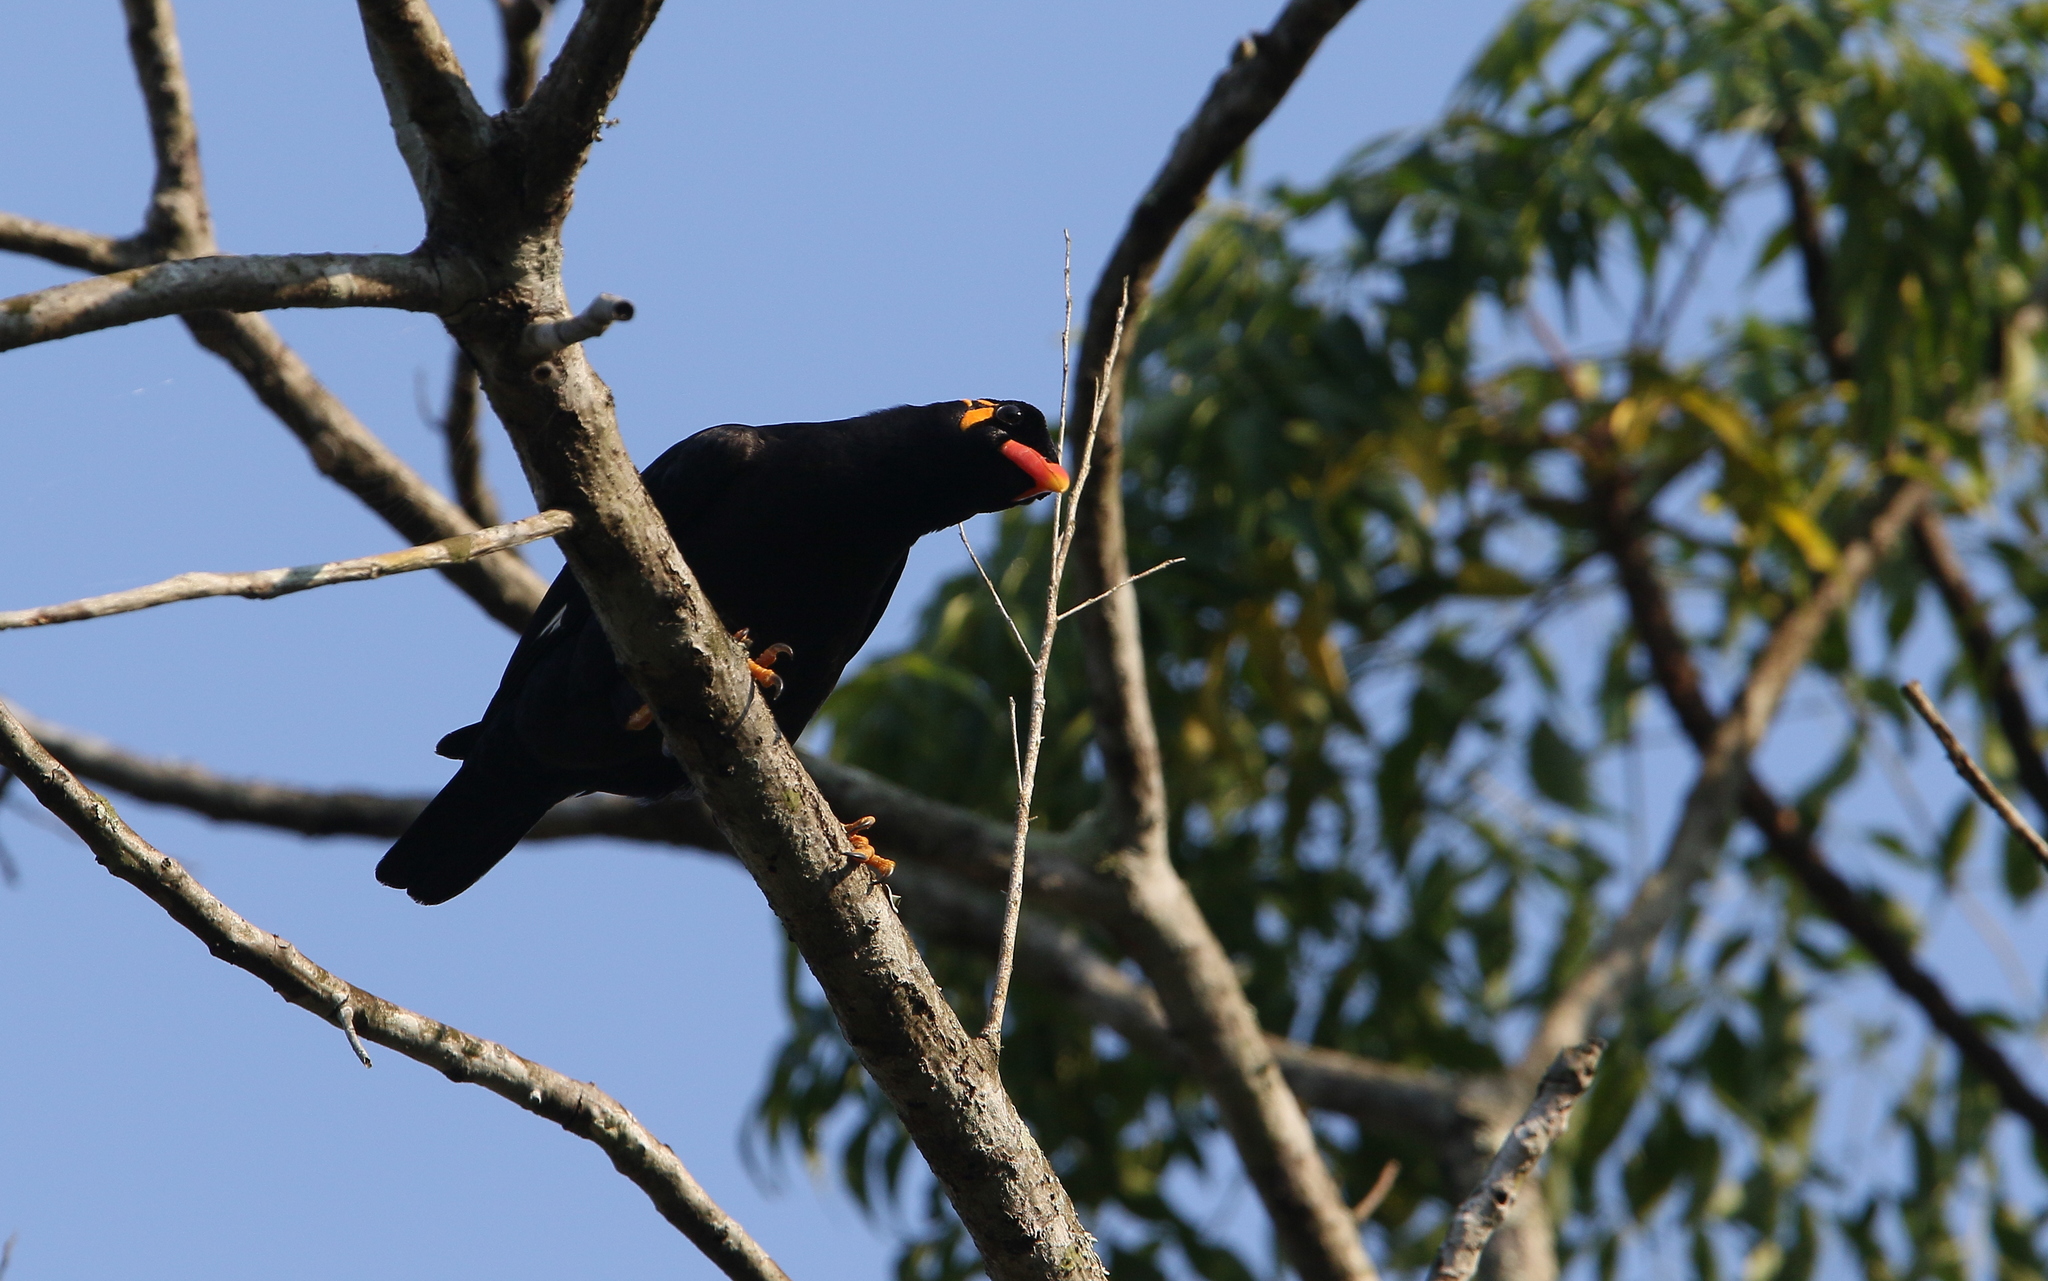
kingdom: Animalia
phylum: Chordata
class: Aves
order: Passeriformes
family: Sturnidae
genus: Gracula
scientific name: Gracula religiosa
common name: Common hill myna
